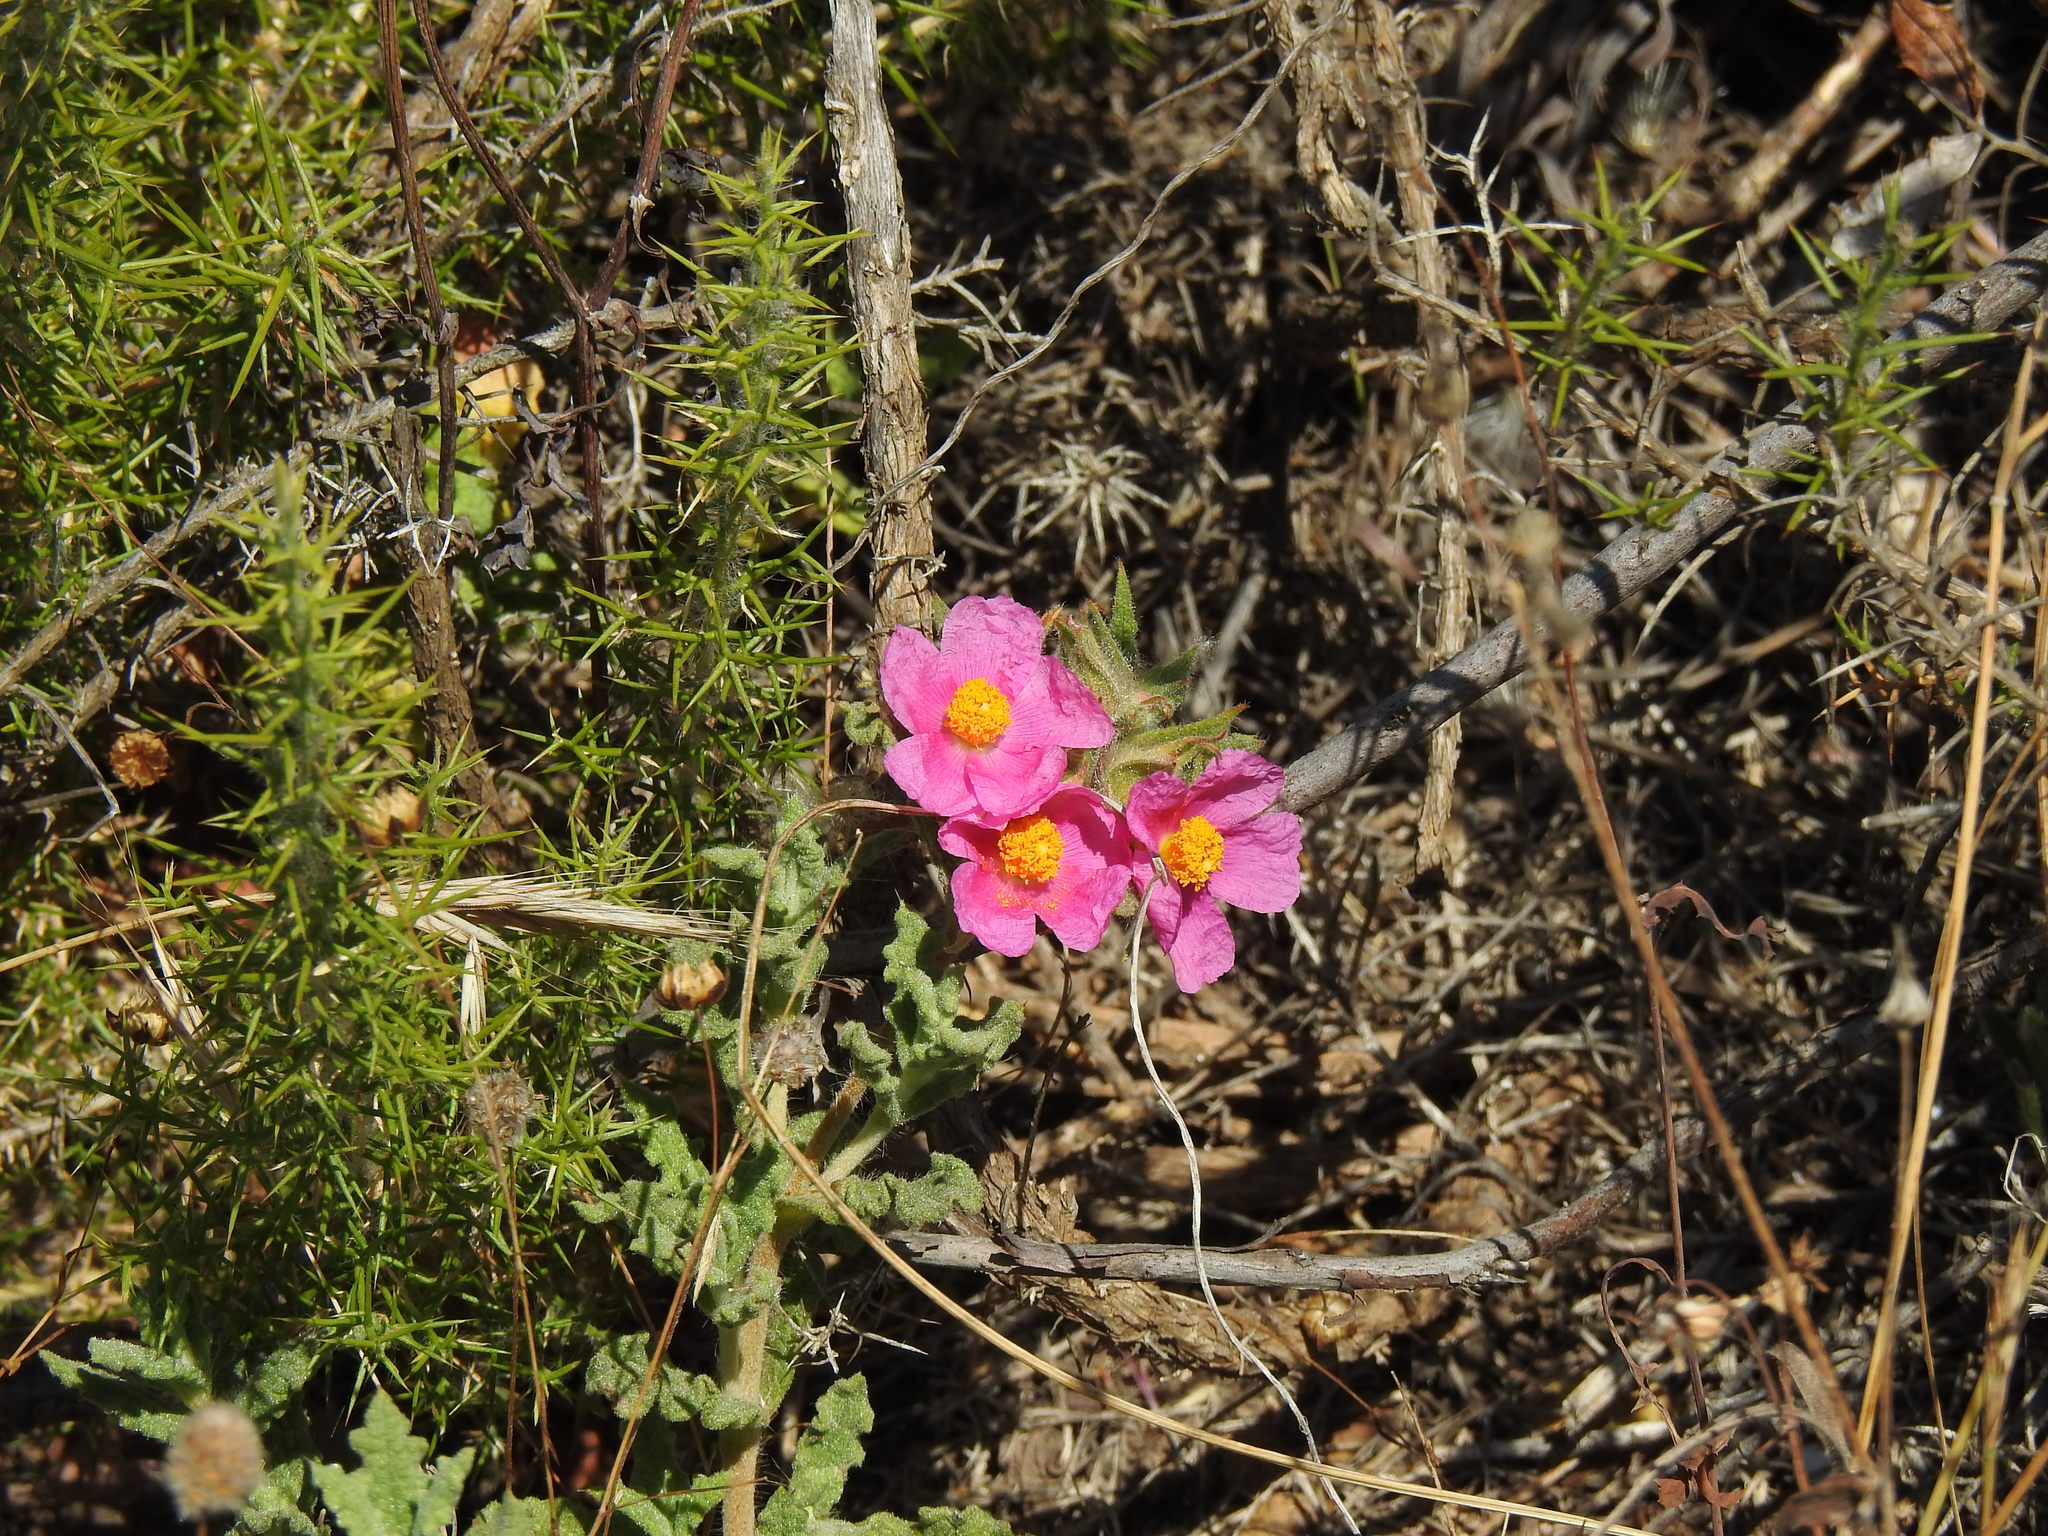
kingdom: Plantae
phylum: Tracheophyta
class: Magnoliopsida
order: Malvales
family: Cistaceae
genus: Cistus
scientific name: Cistus crispus
